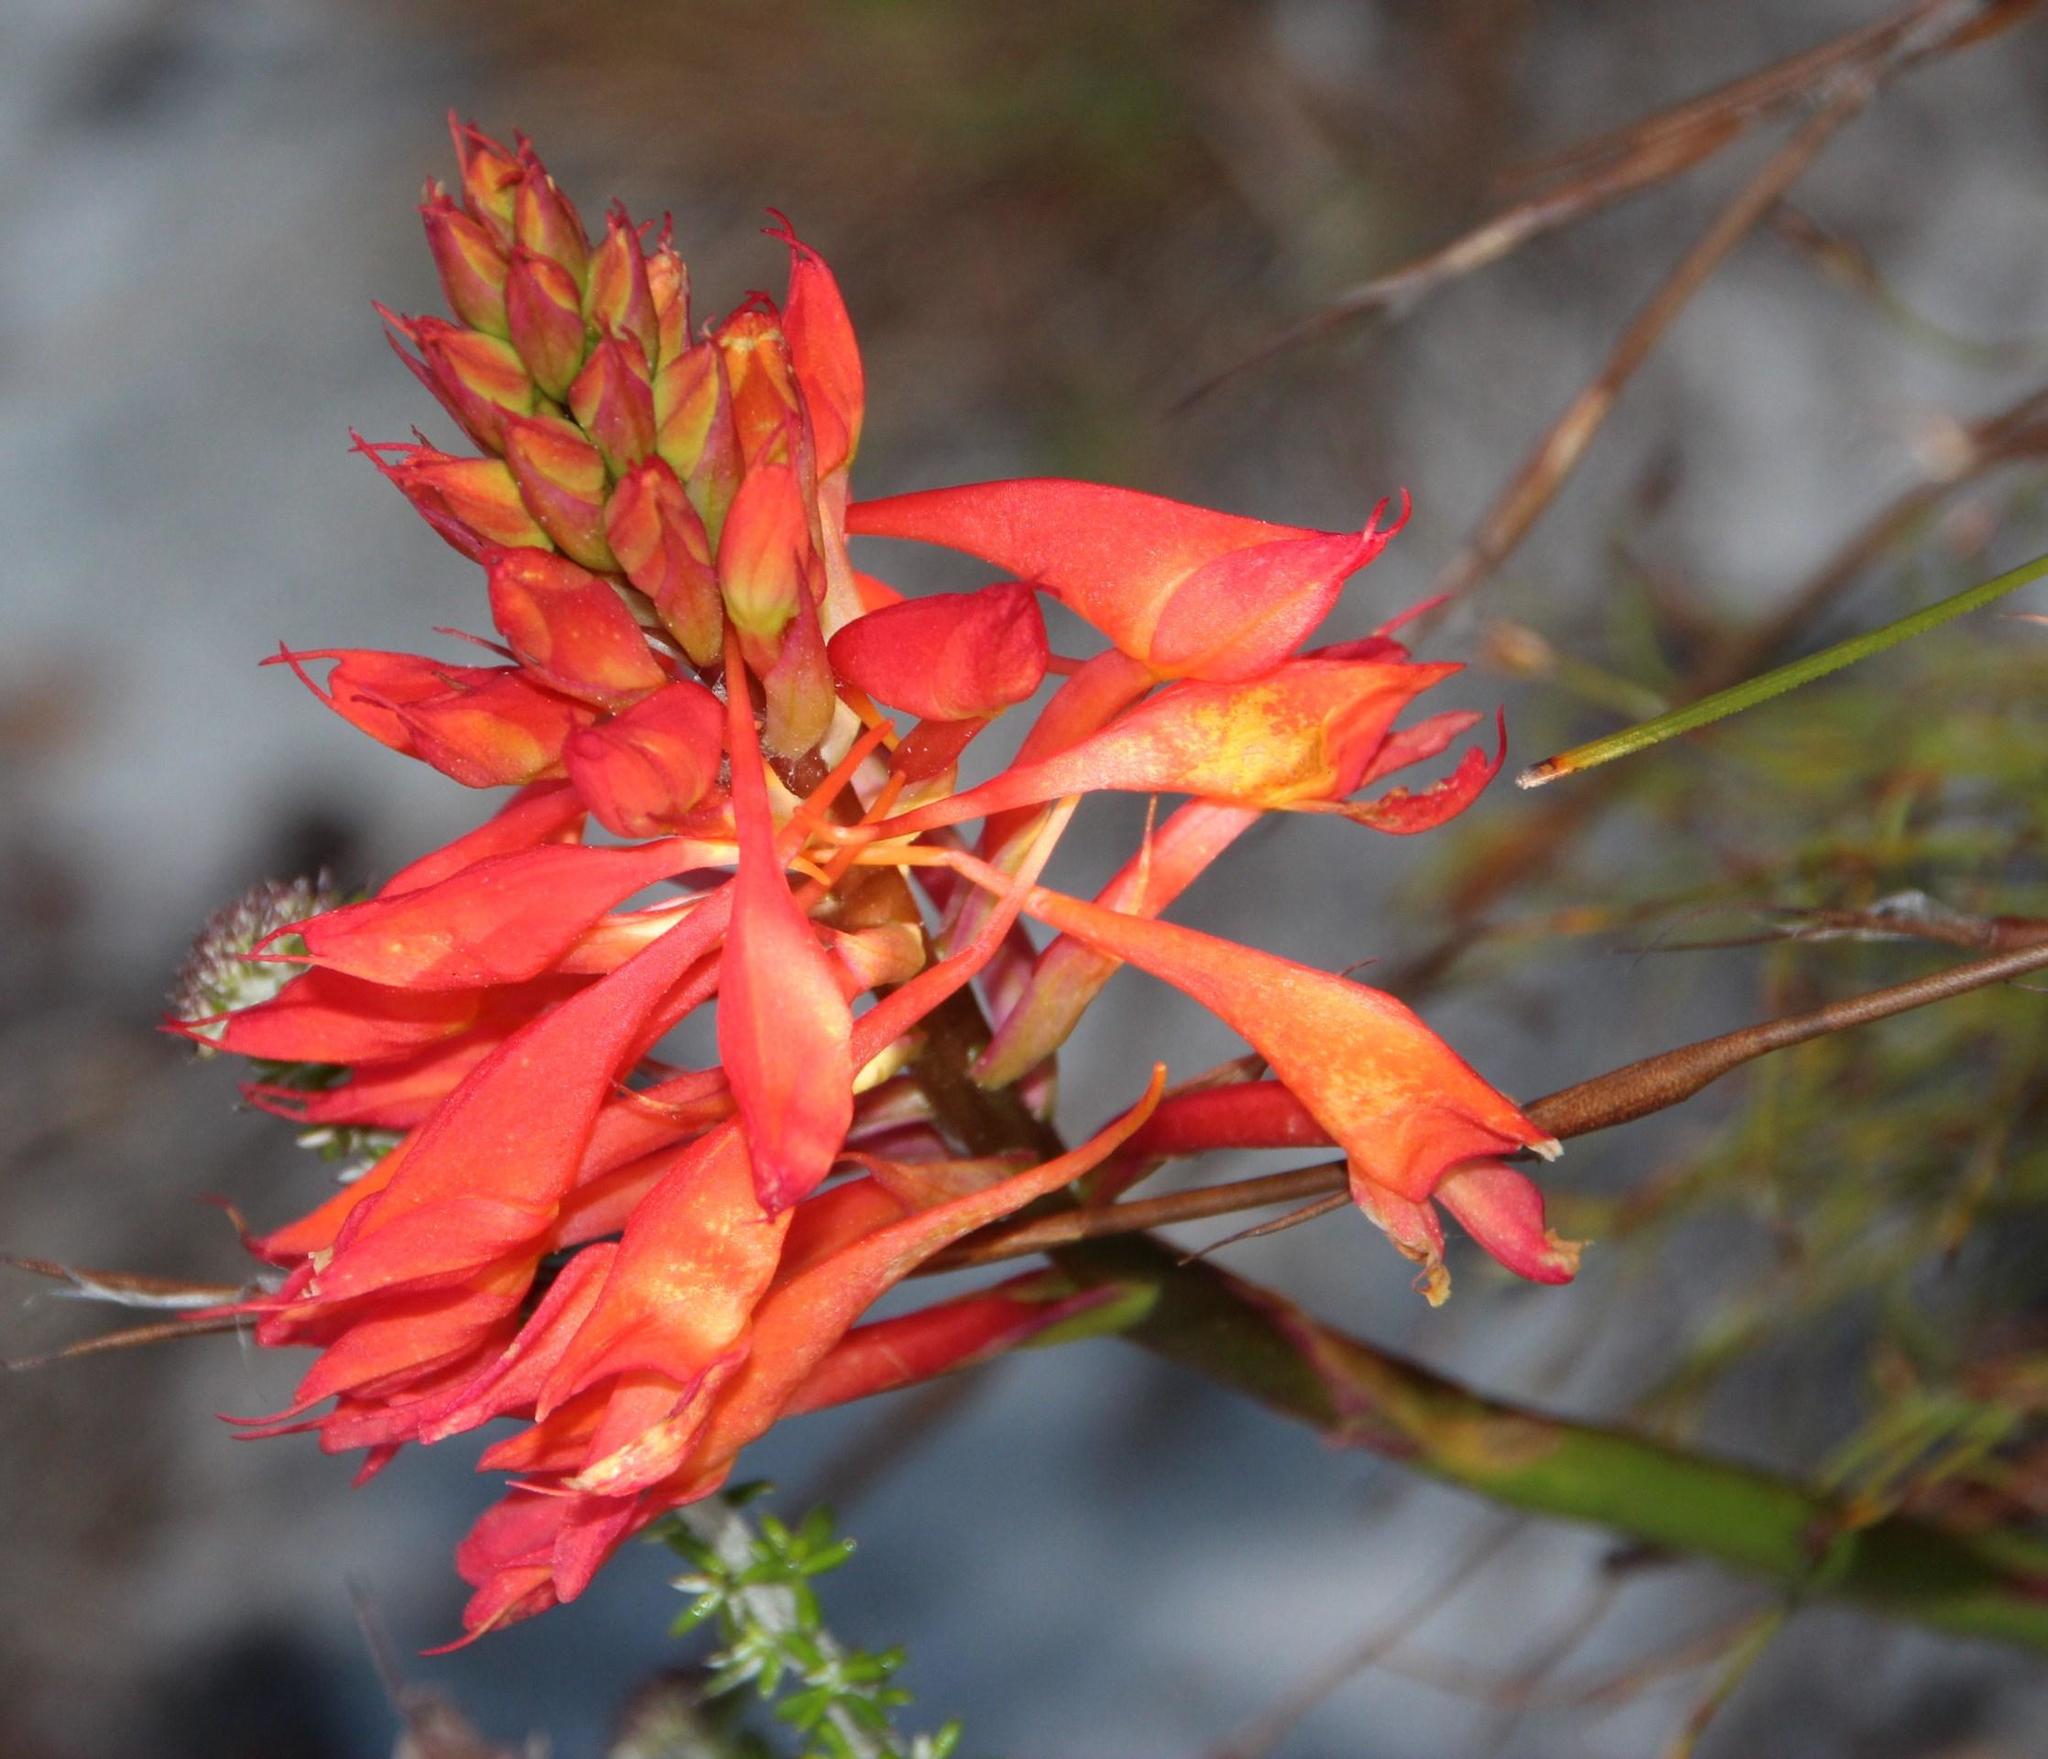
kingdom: Plantae
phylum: Tracheophyta
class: Liliopsida
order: Asparagales
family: Orchidaceae
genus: Disa
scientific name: Disa ferruginea
